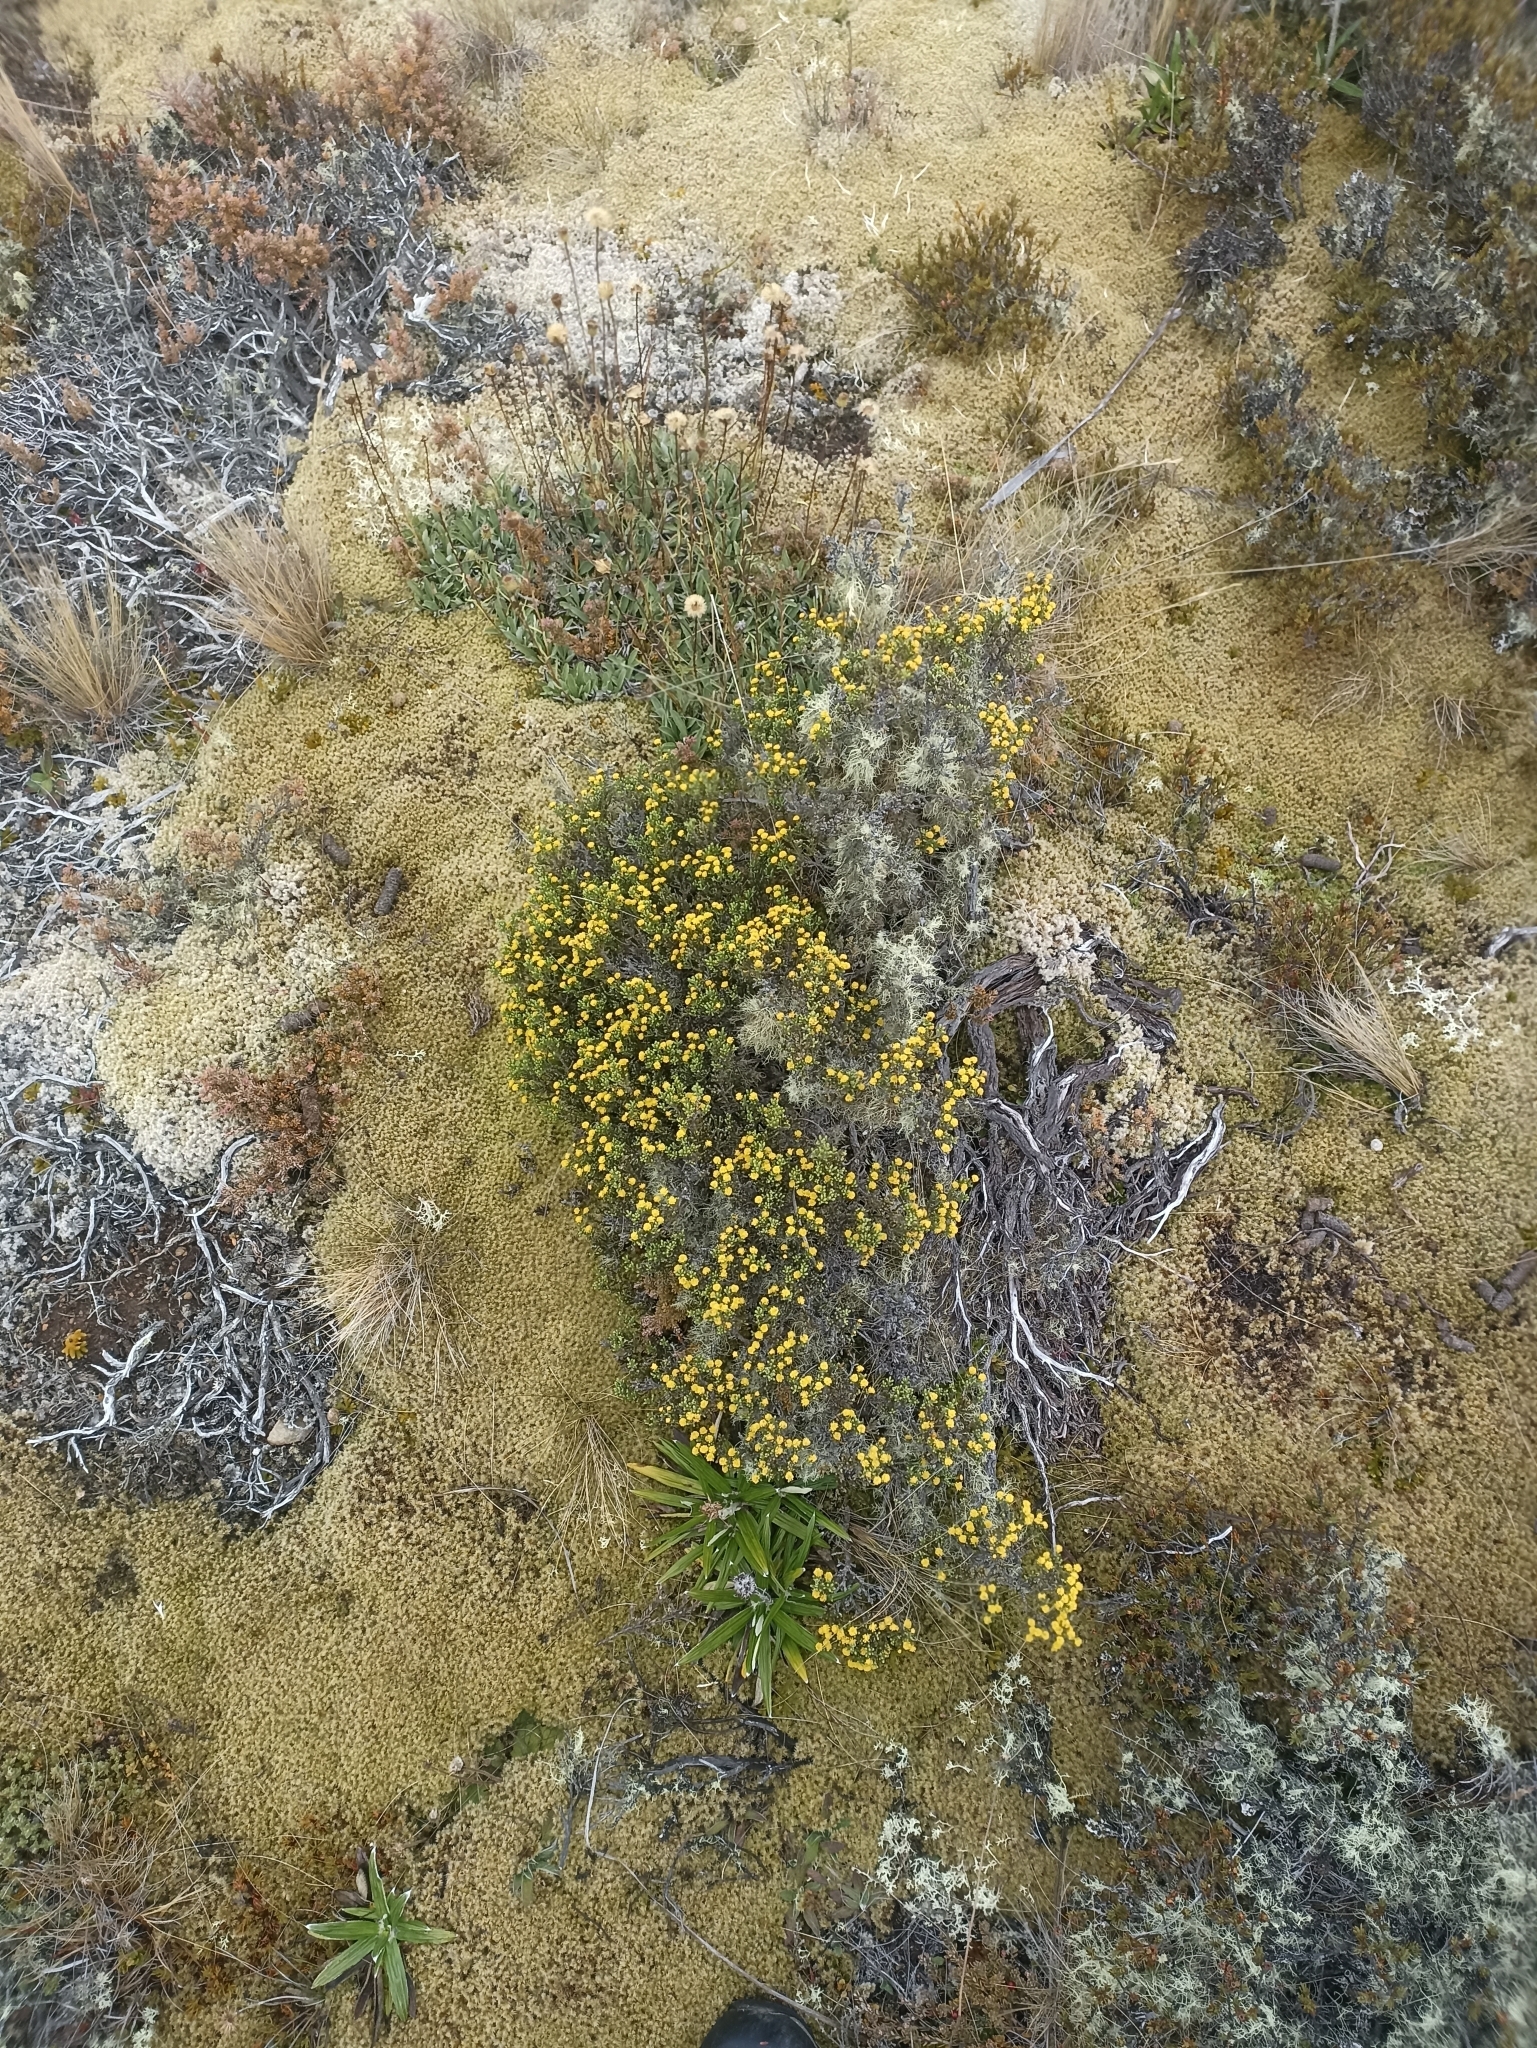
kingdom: Plantae
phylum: Tracheophyta
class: Magnoliopsida
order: Asterales
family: Asteraceae
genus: Ozothamnus
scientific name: Ozothamnus parvifolius
